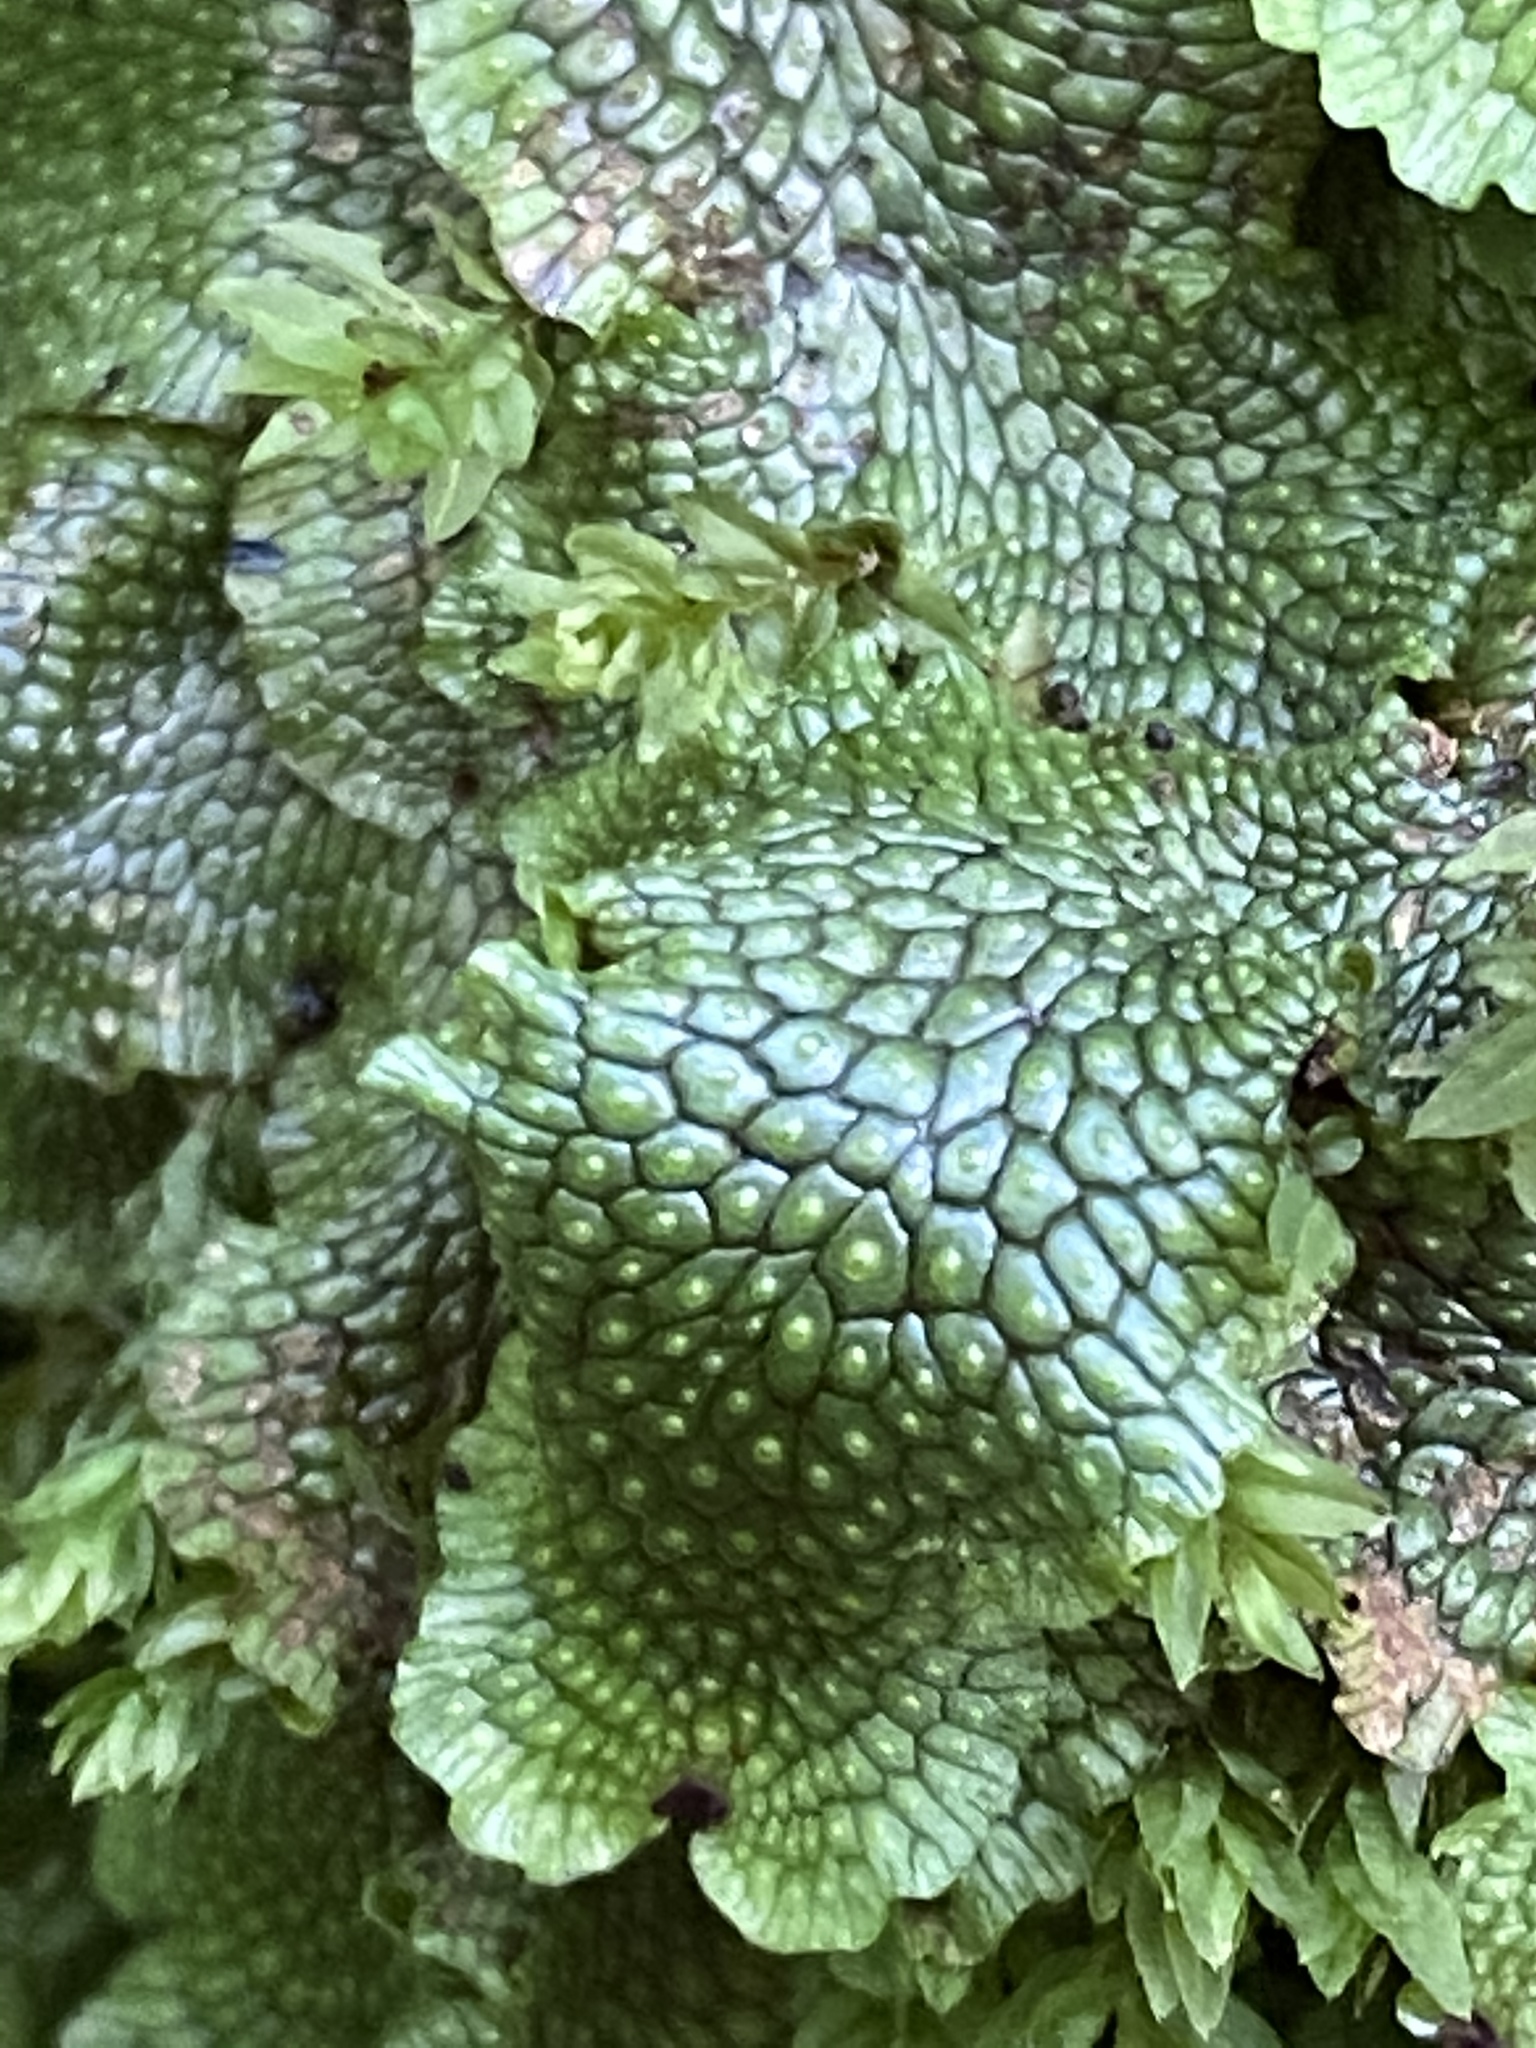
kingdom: Plantae
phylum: Marchantiophyta
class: Marchantiopsida
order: Marchantiales
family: Conocephalaceae
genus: Conocephalum
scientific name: Conocephalum salebrosum
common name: Cat-tongue liverwort
